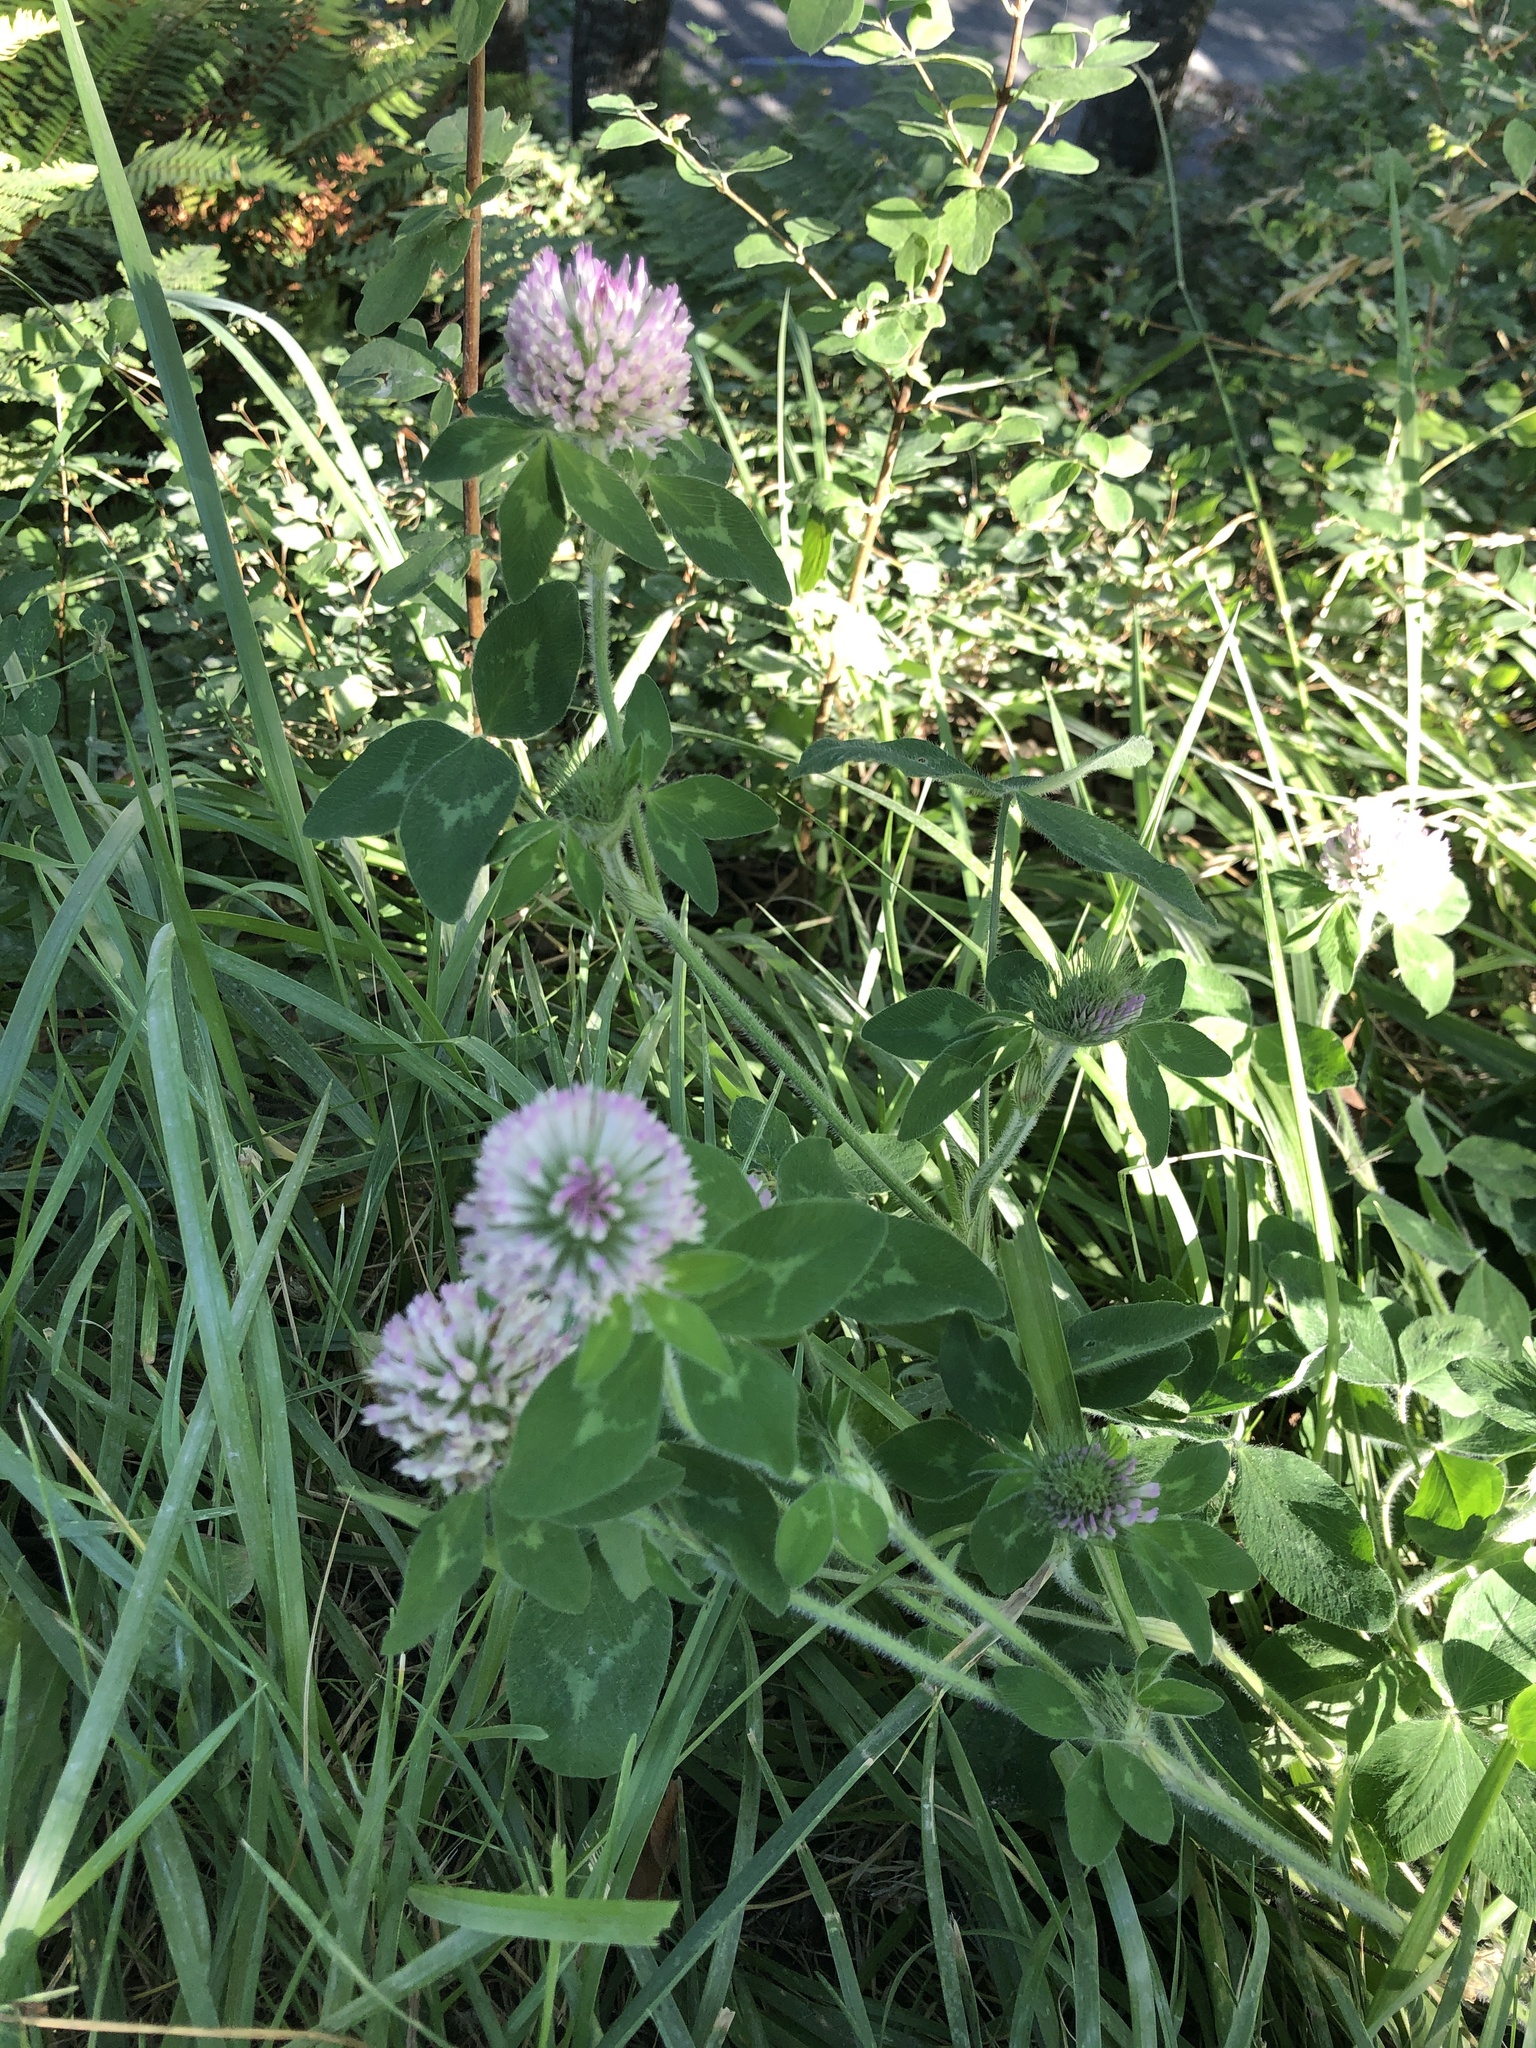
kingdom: Plantae
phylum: Tracheophyta
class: Magnoliopsida
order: Fabales
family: Fabaceae
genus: Trifolium
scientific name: Trifolium pratense
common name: Red clover
